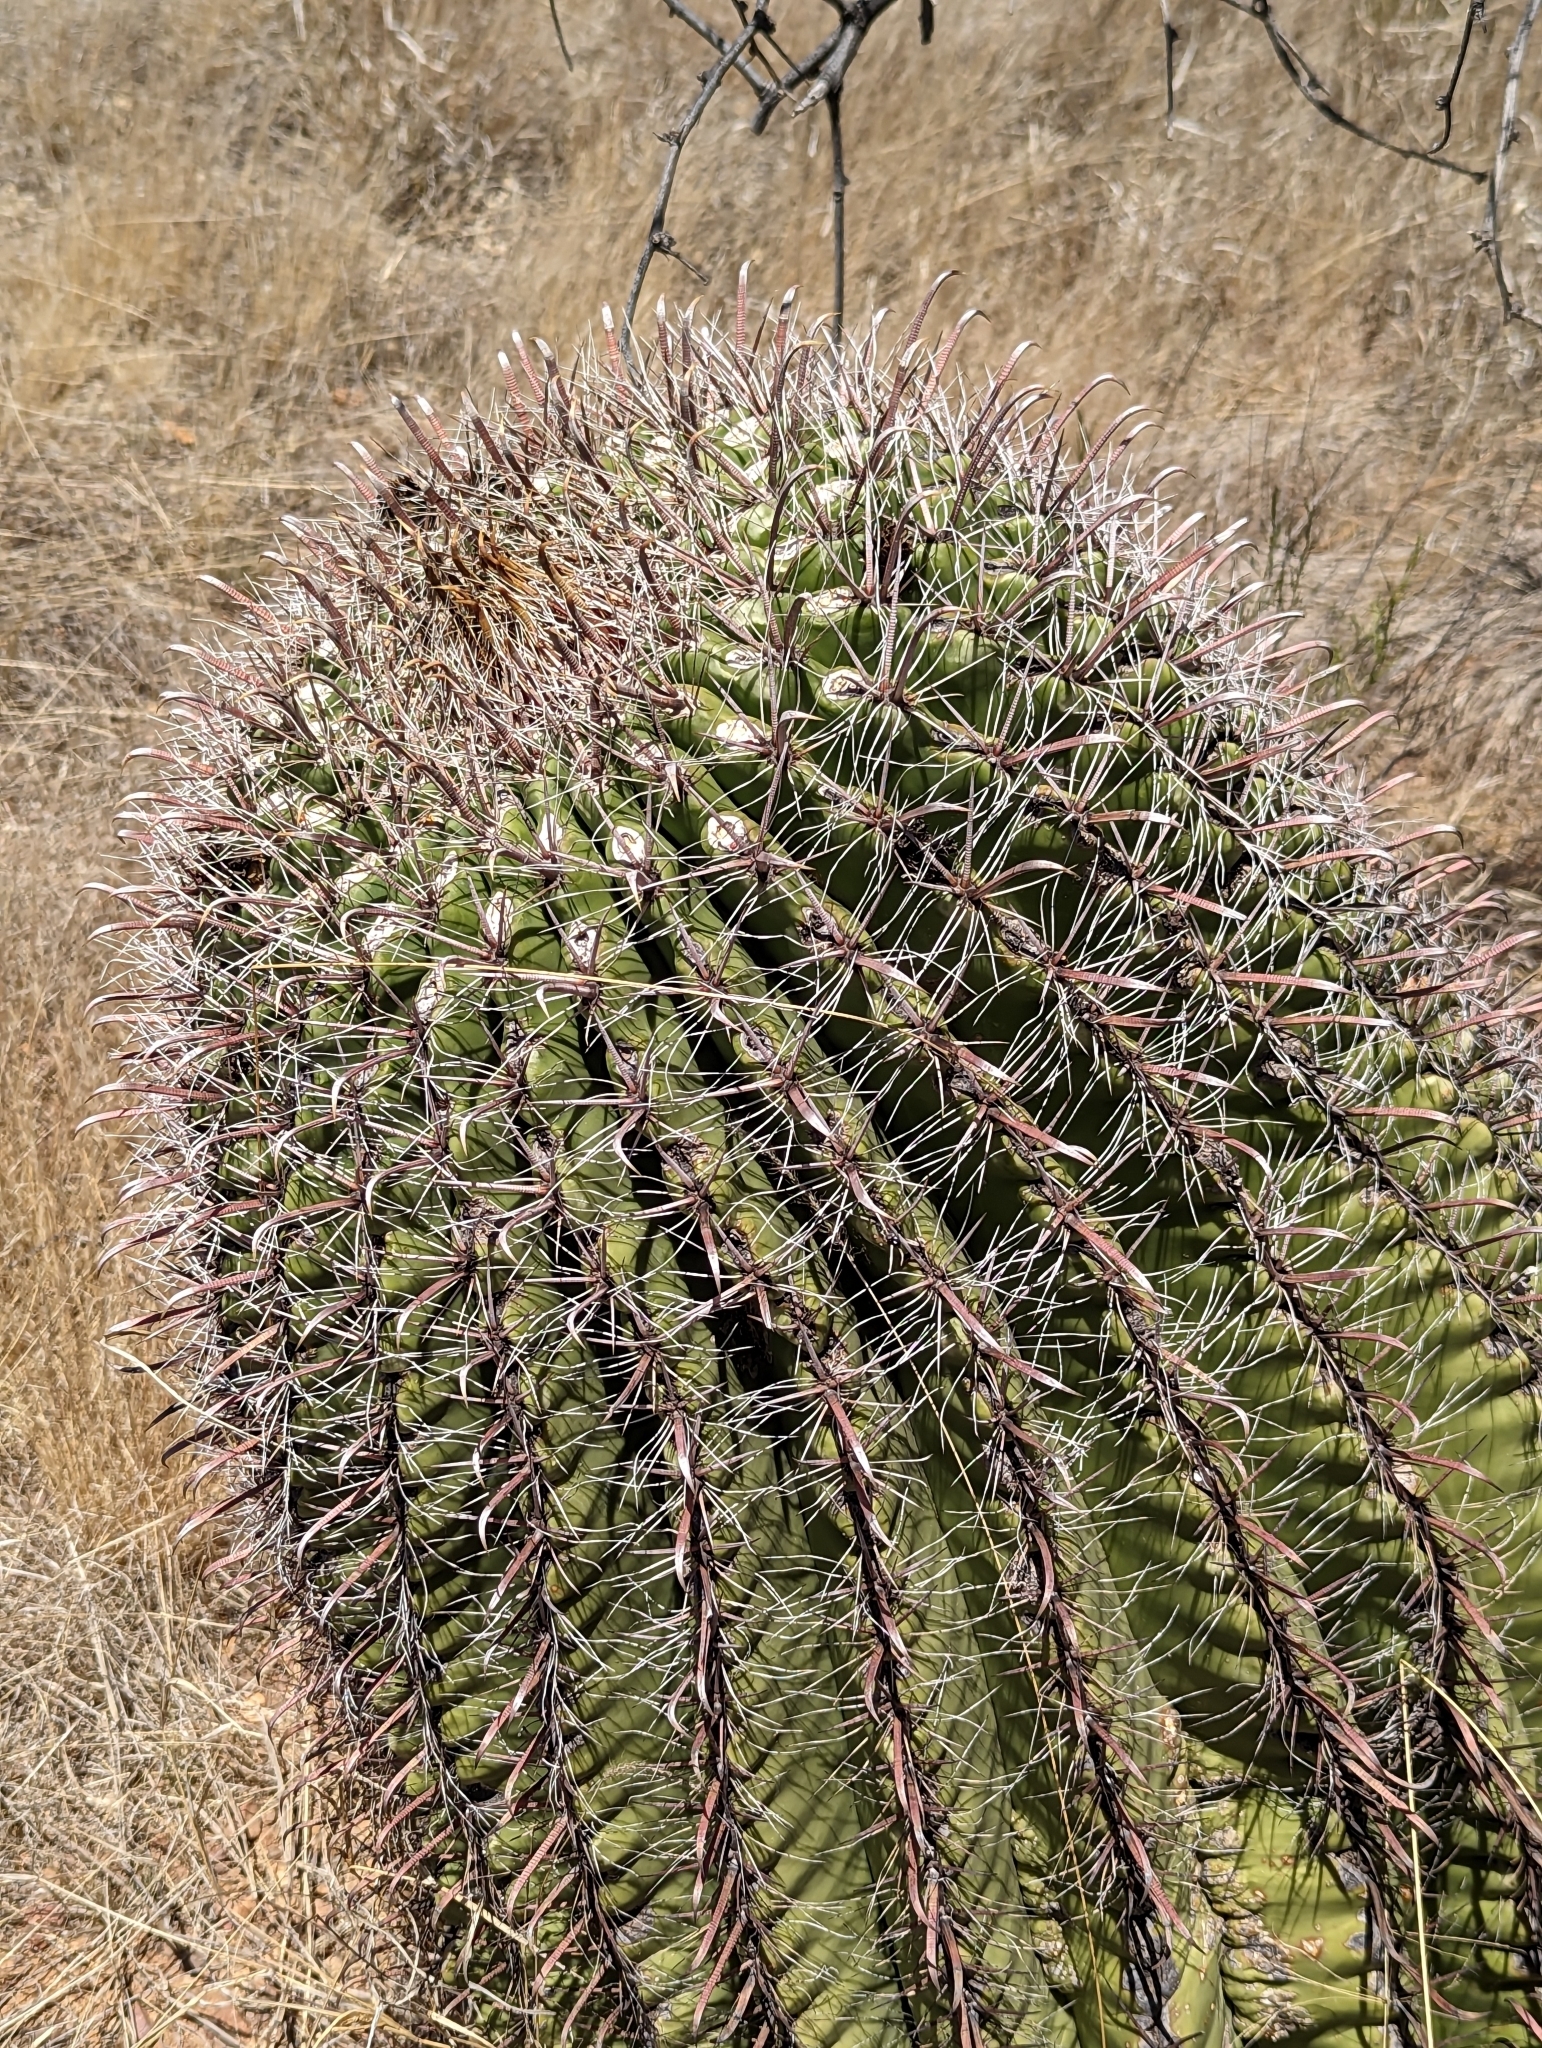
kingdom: Plantae
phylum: Tracheophyta
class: Magnoliopsida
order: Caryophyllales
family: Cactaceae
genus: Ferocactus
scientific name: Ferocactus wislizeni
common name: Candy barrel cactus
